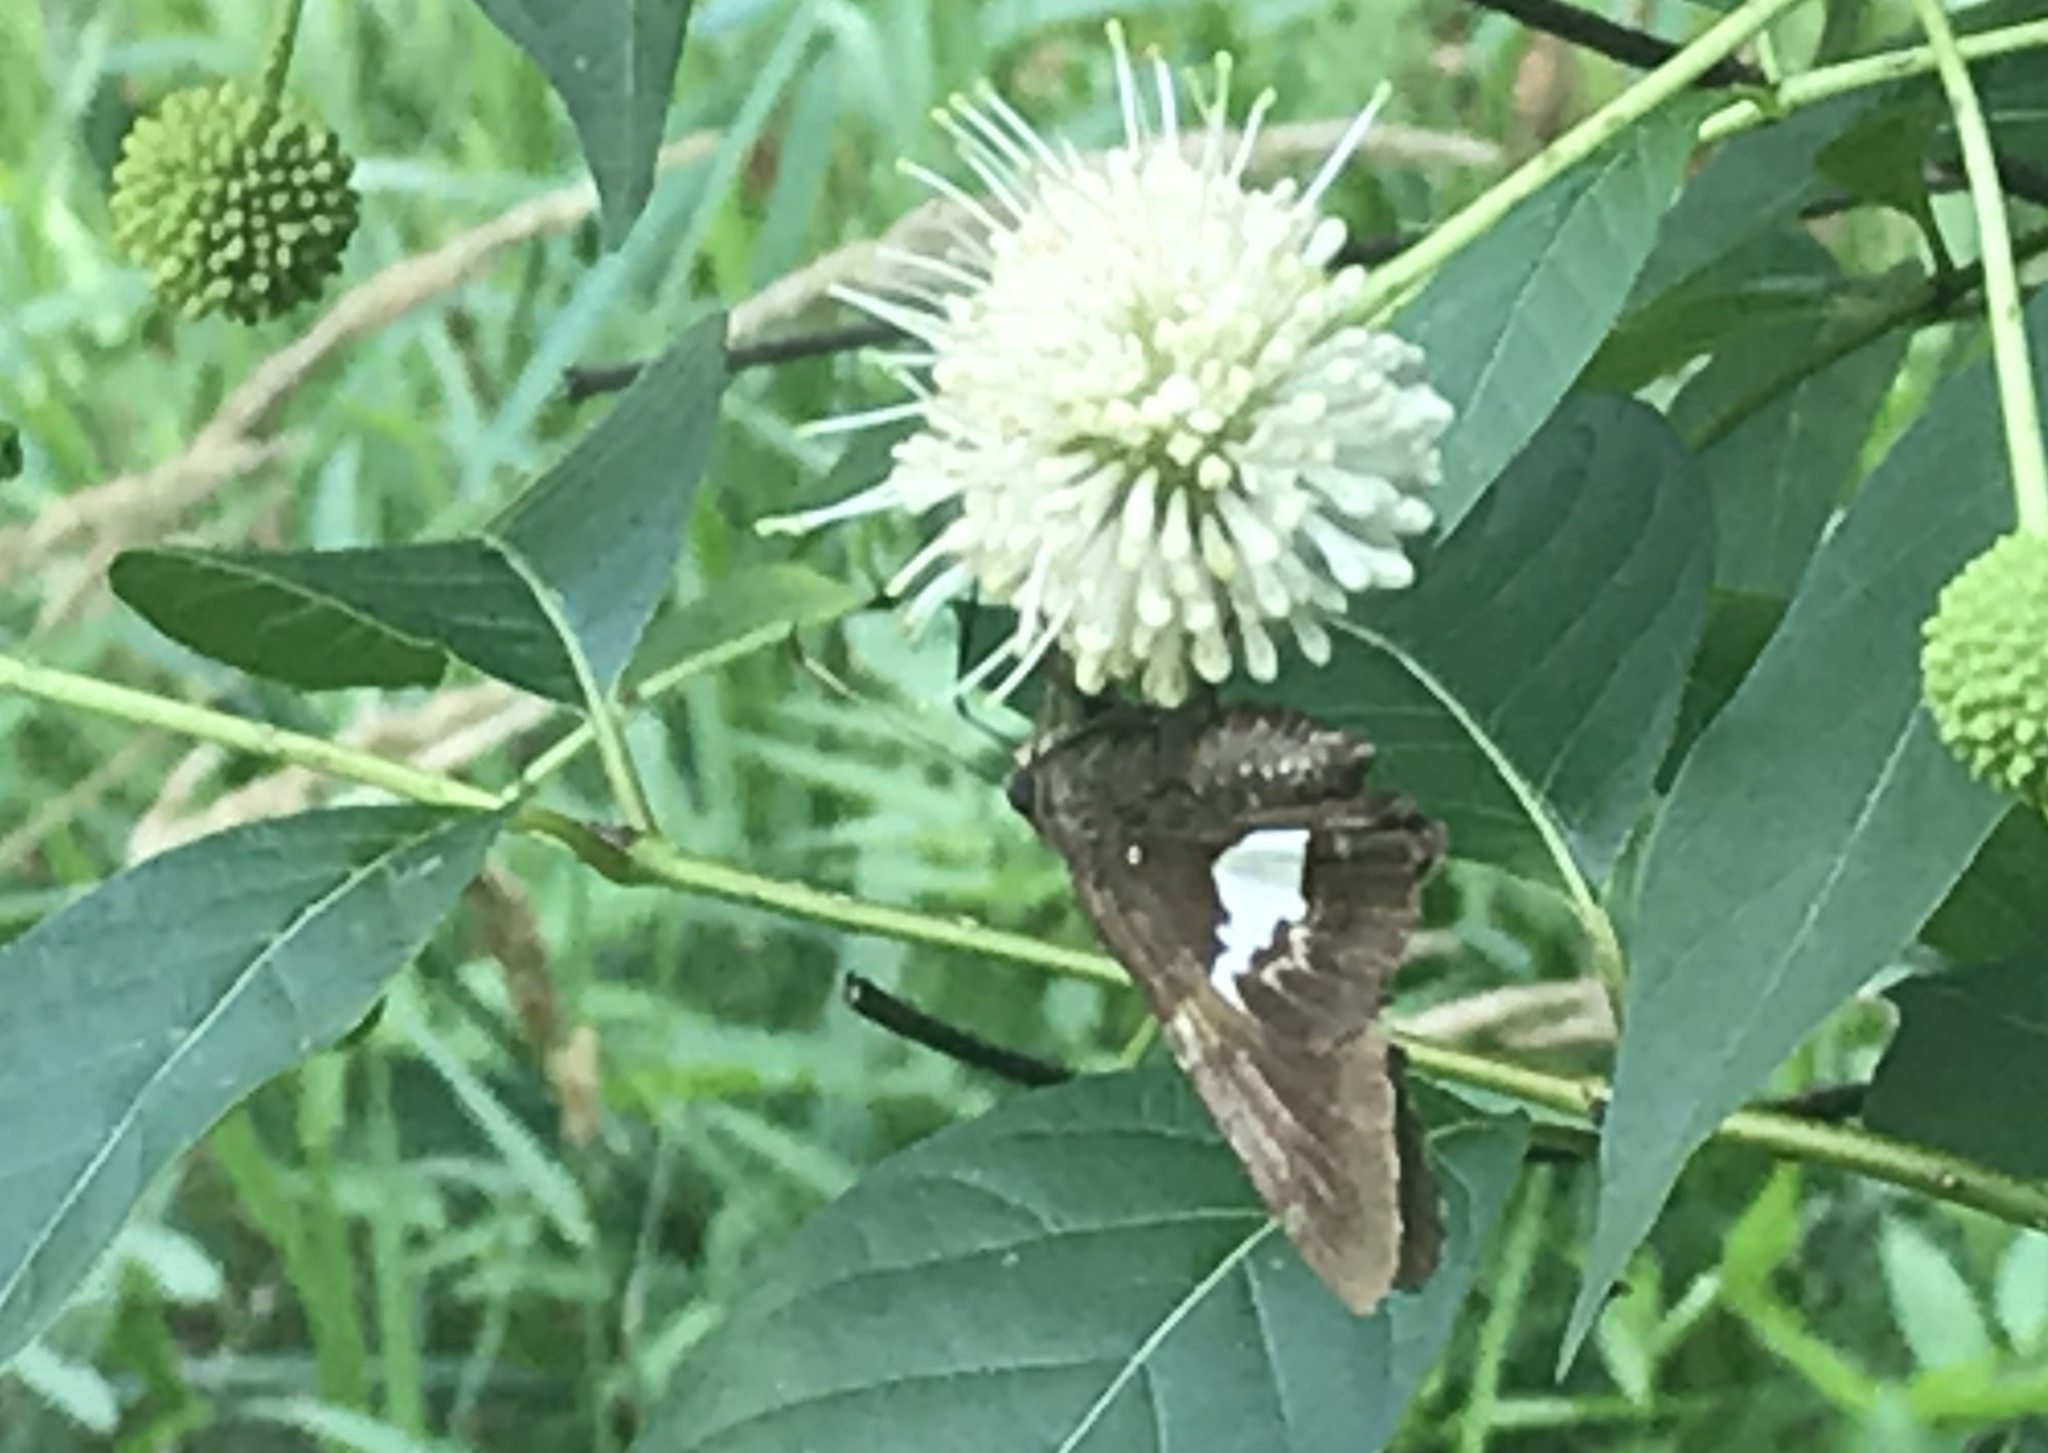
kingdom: Animalia
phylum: Arthropoda
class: Insecta
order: Lepidoptera
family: Hesperiidae
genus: Epargyreus
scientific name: Epargyreus clarus
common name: Silver-spotted skipper
